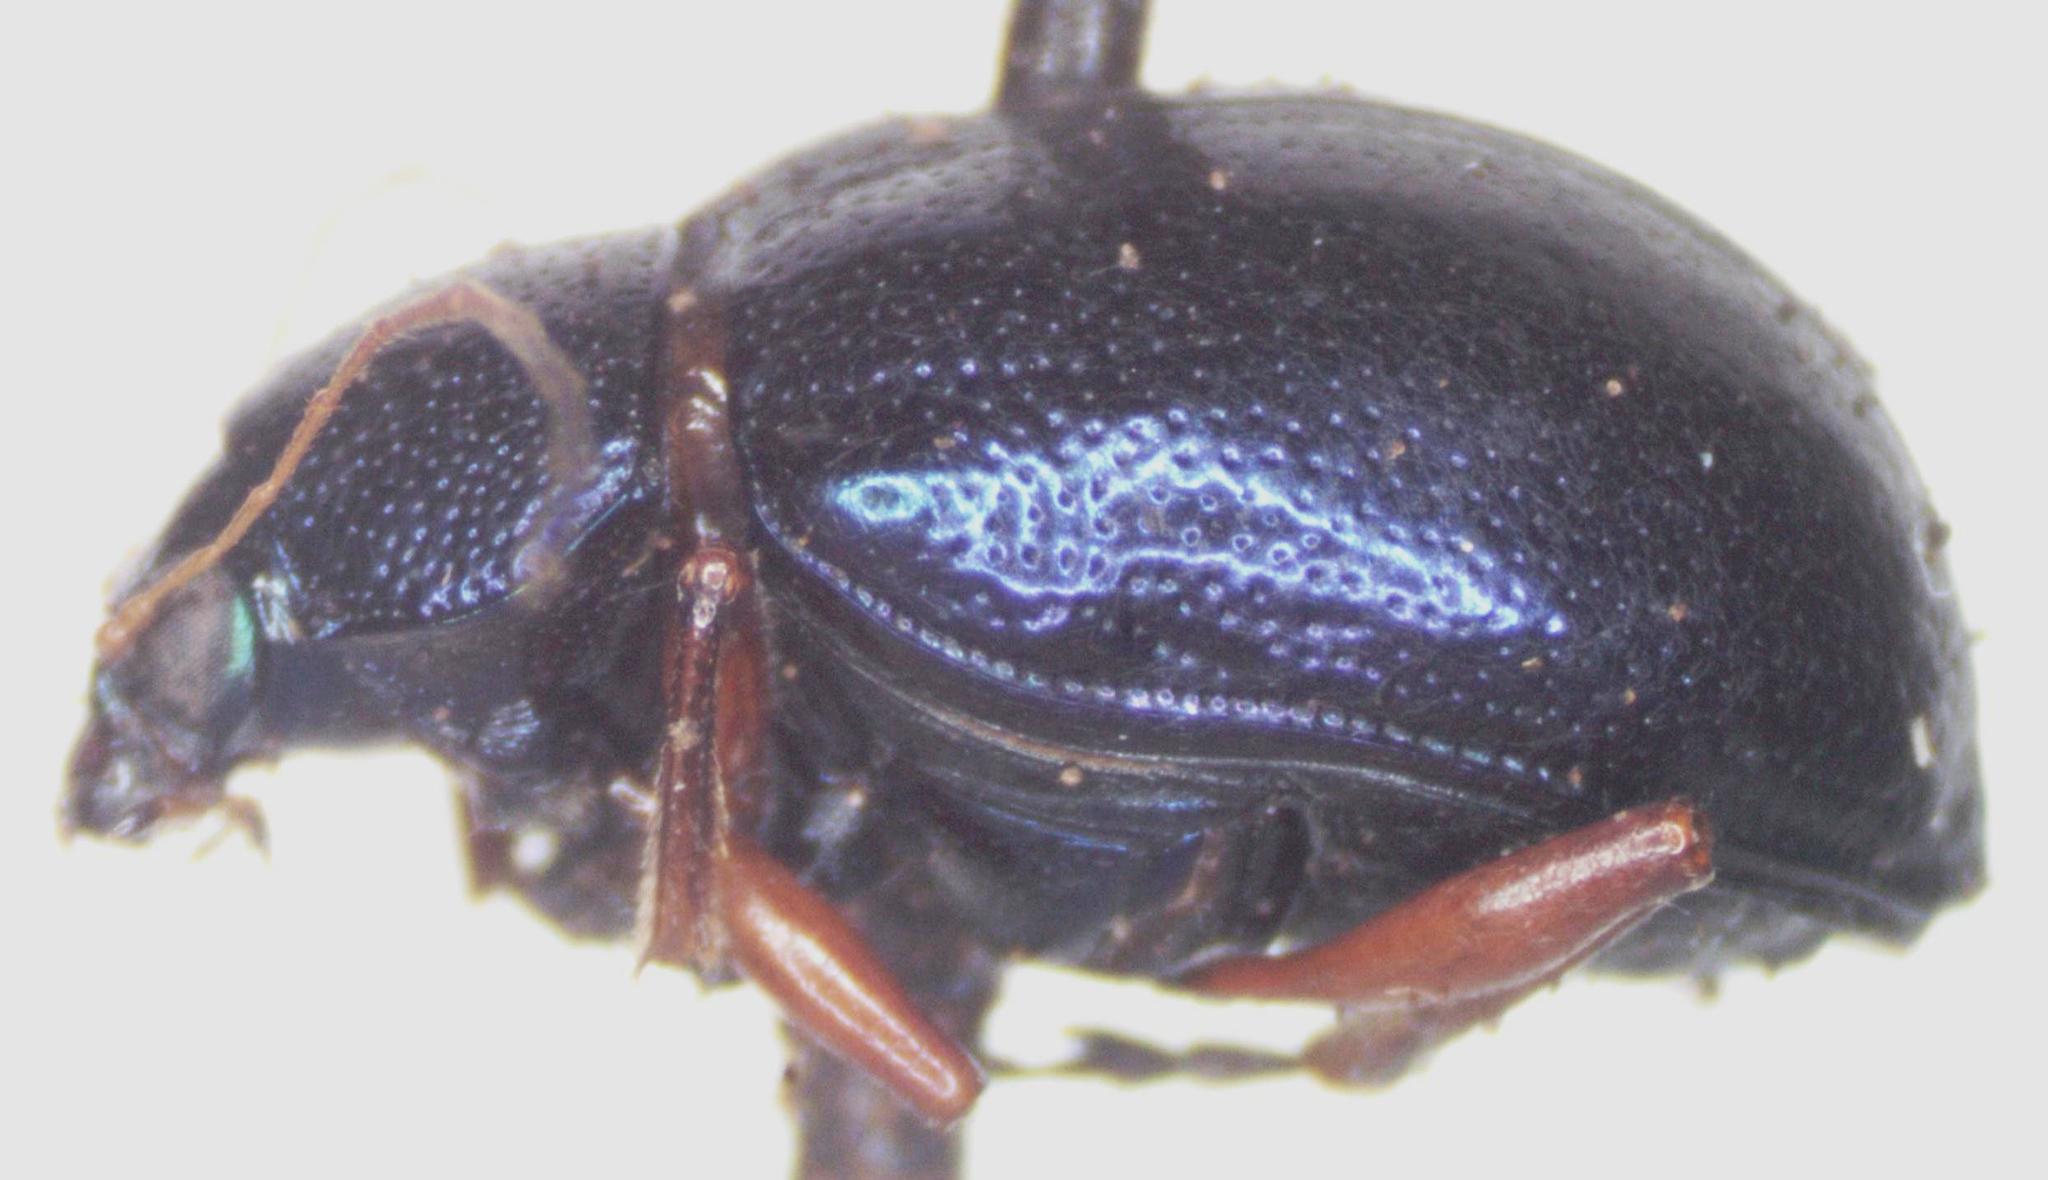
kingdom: Animalia
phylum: Arthropoda
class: Insecta
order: Coleoptera
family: Chrysomelidae
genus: Colaspis
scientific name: Colaspis
